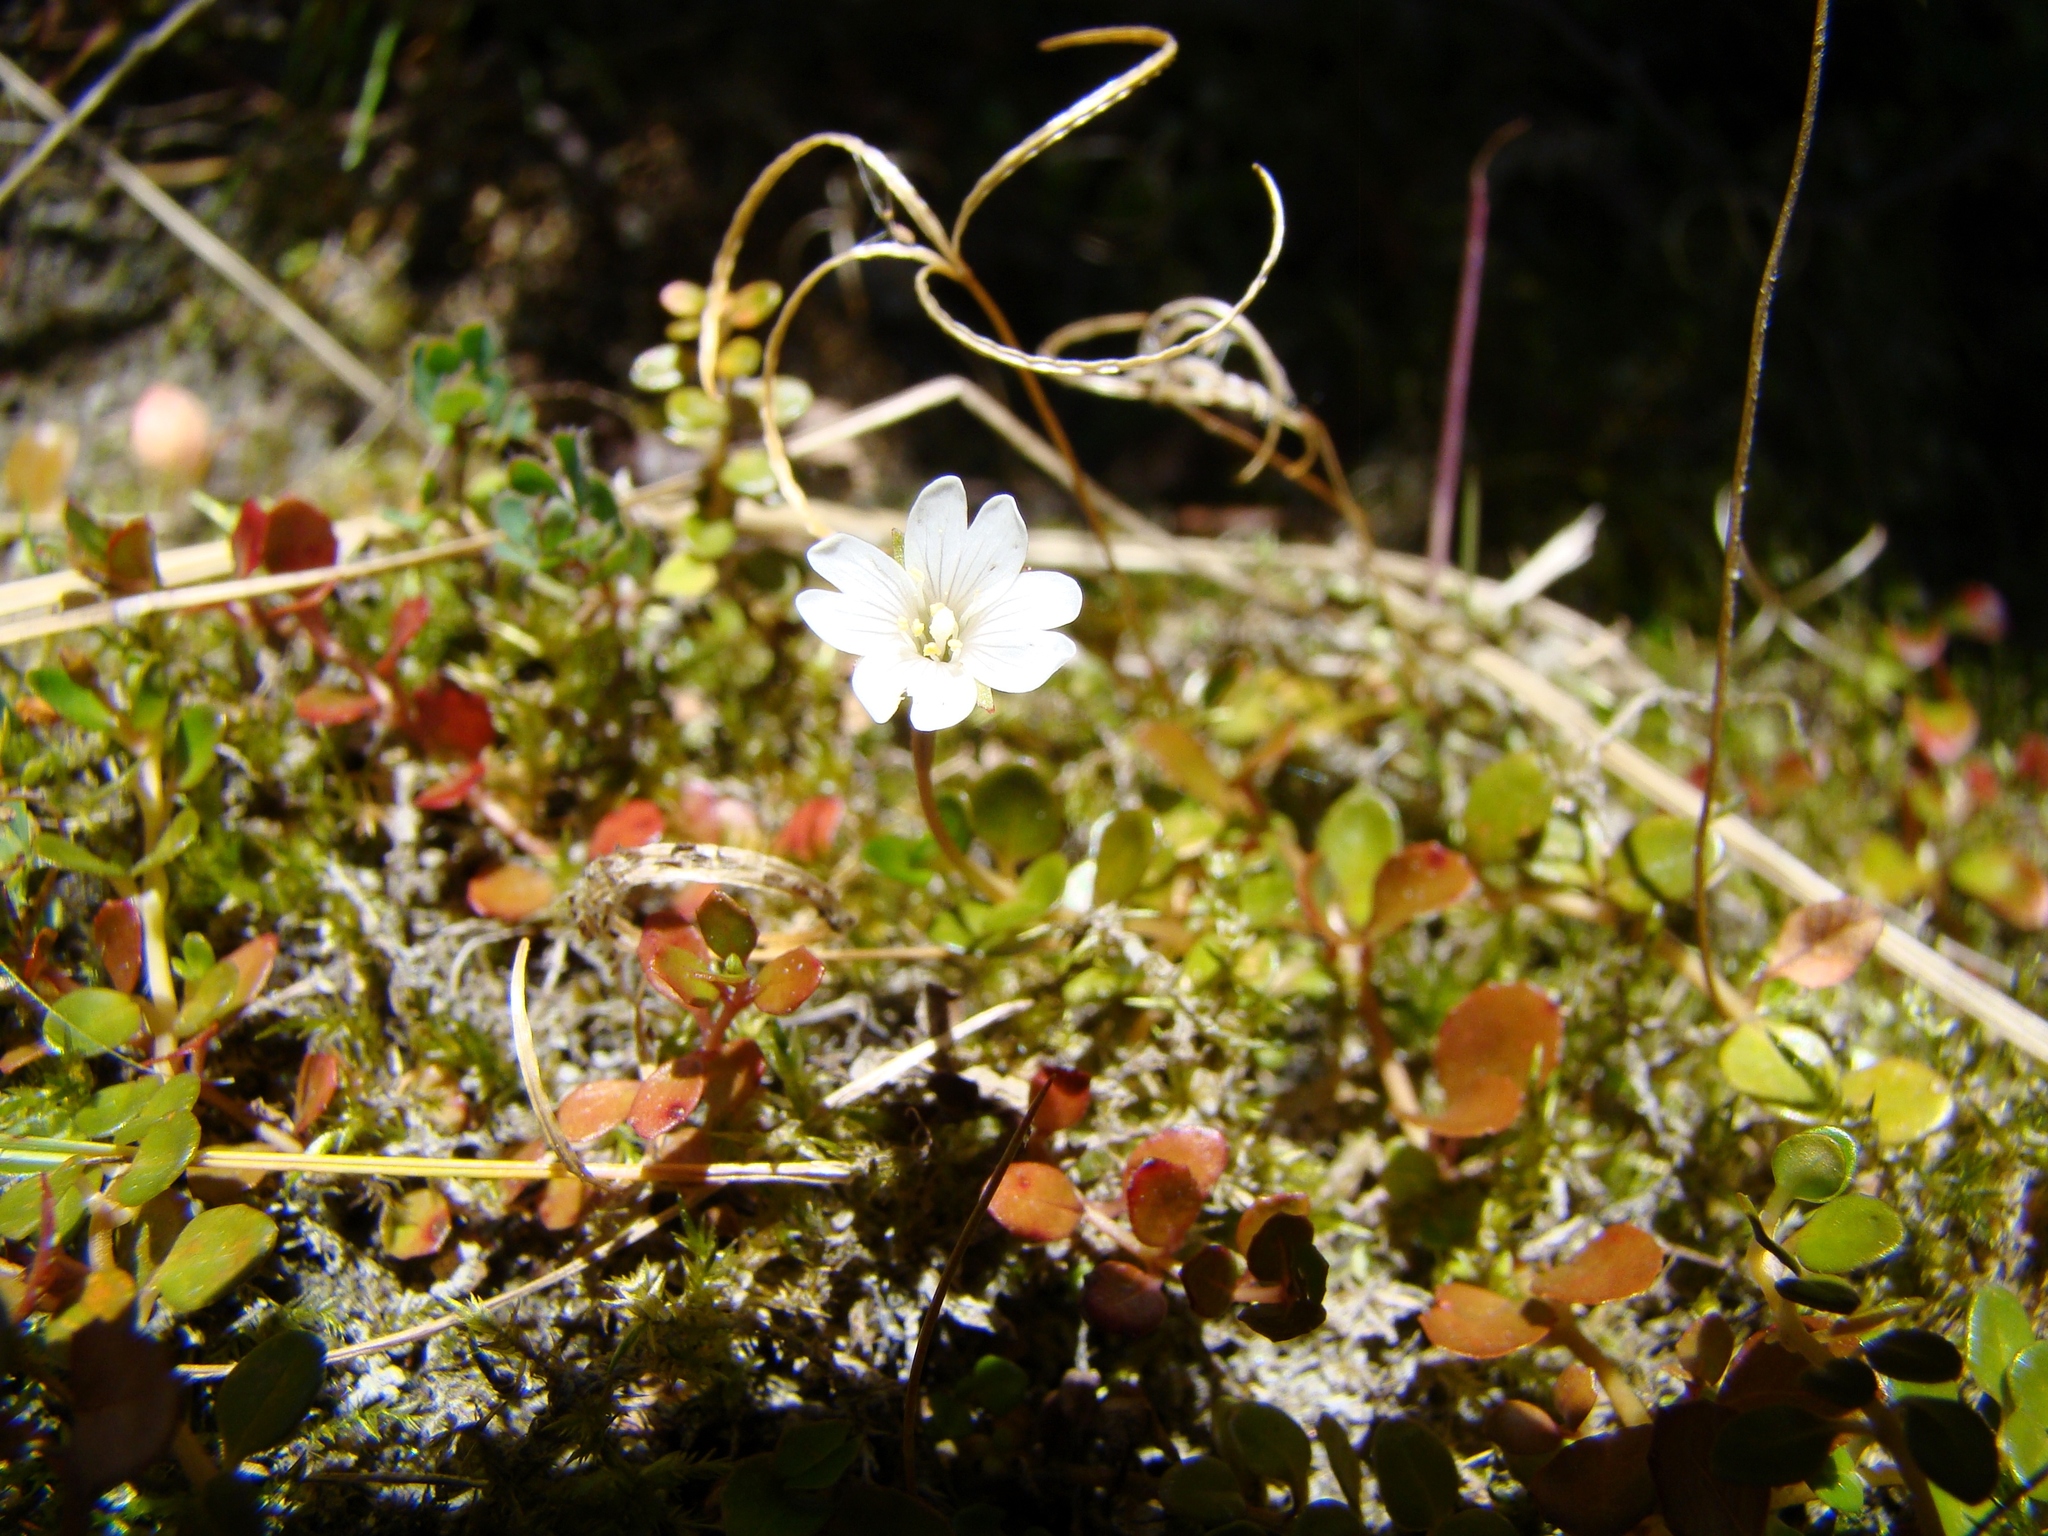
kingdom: Plantae
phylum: Tracheophyta
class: Magnoliopsida
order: Myrtales
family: Onagraceae
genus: Epilobium
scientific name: Epilobium
